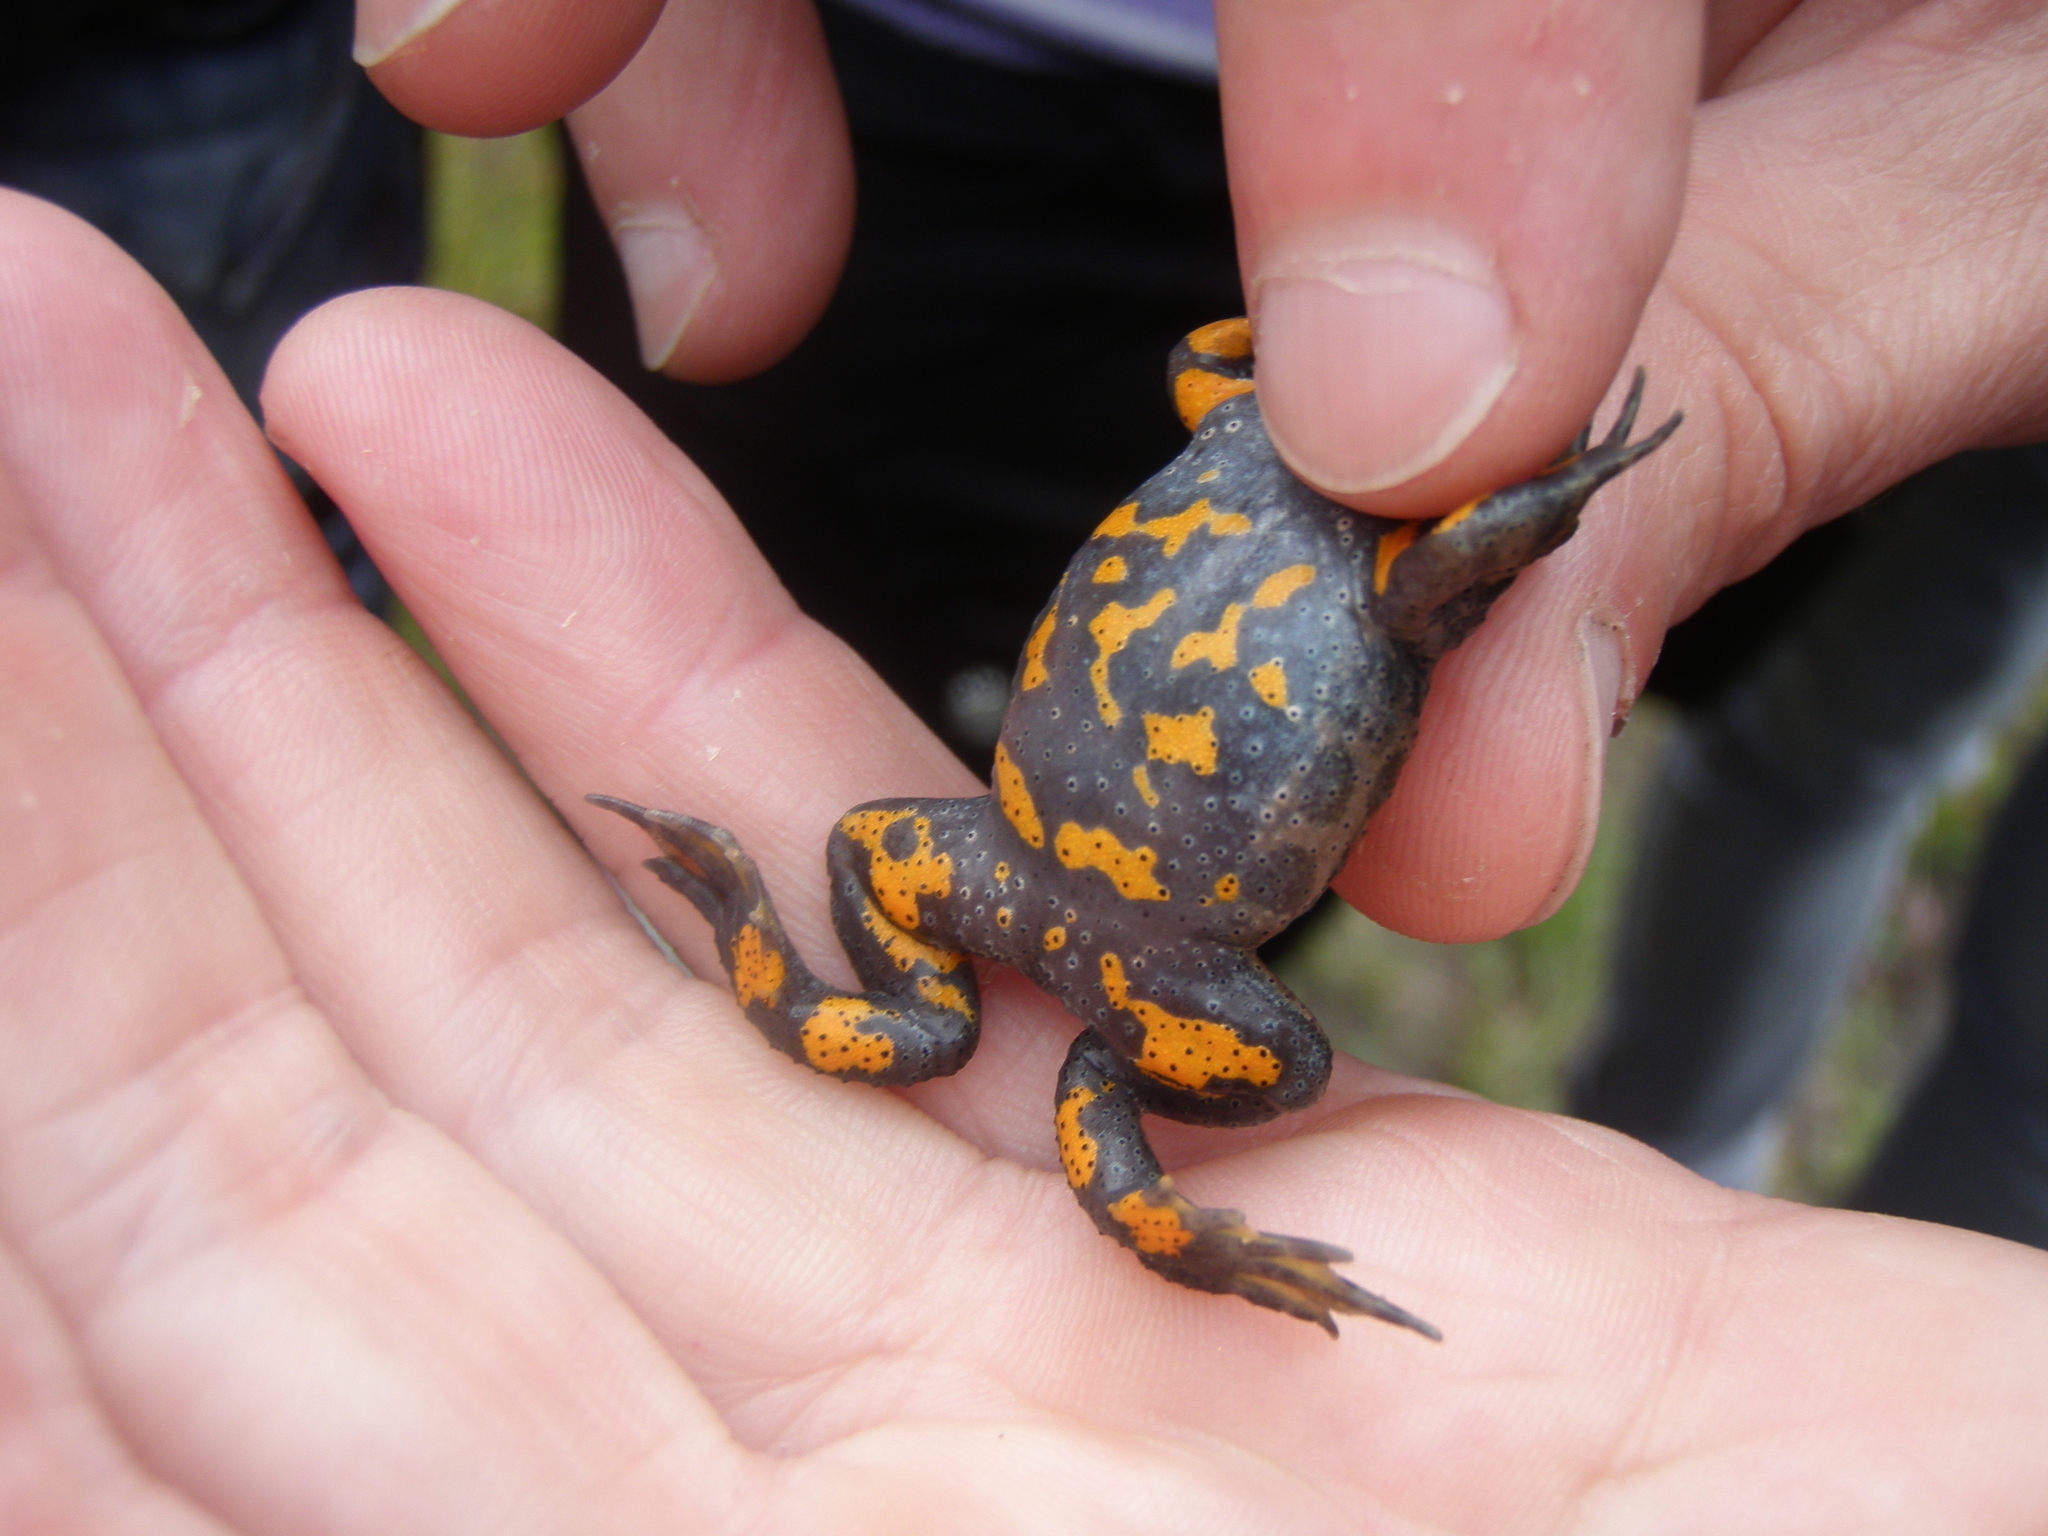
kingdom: Animalia
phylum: Chordata
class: Amphibia
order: Anura
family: Bombinatoridae
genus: Bombina
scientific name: Bombina bombina
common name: Fire-bellied toad
